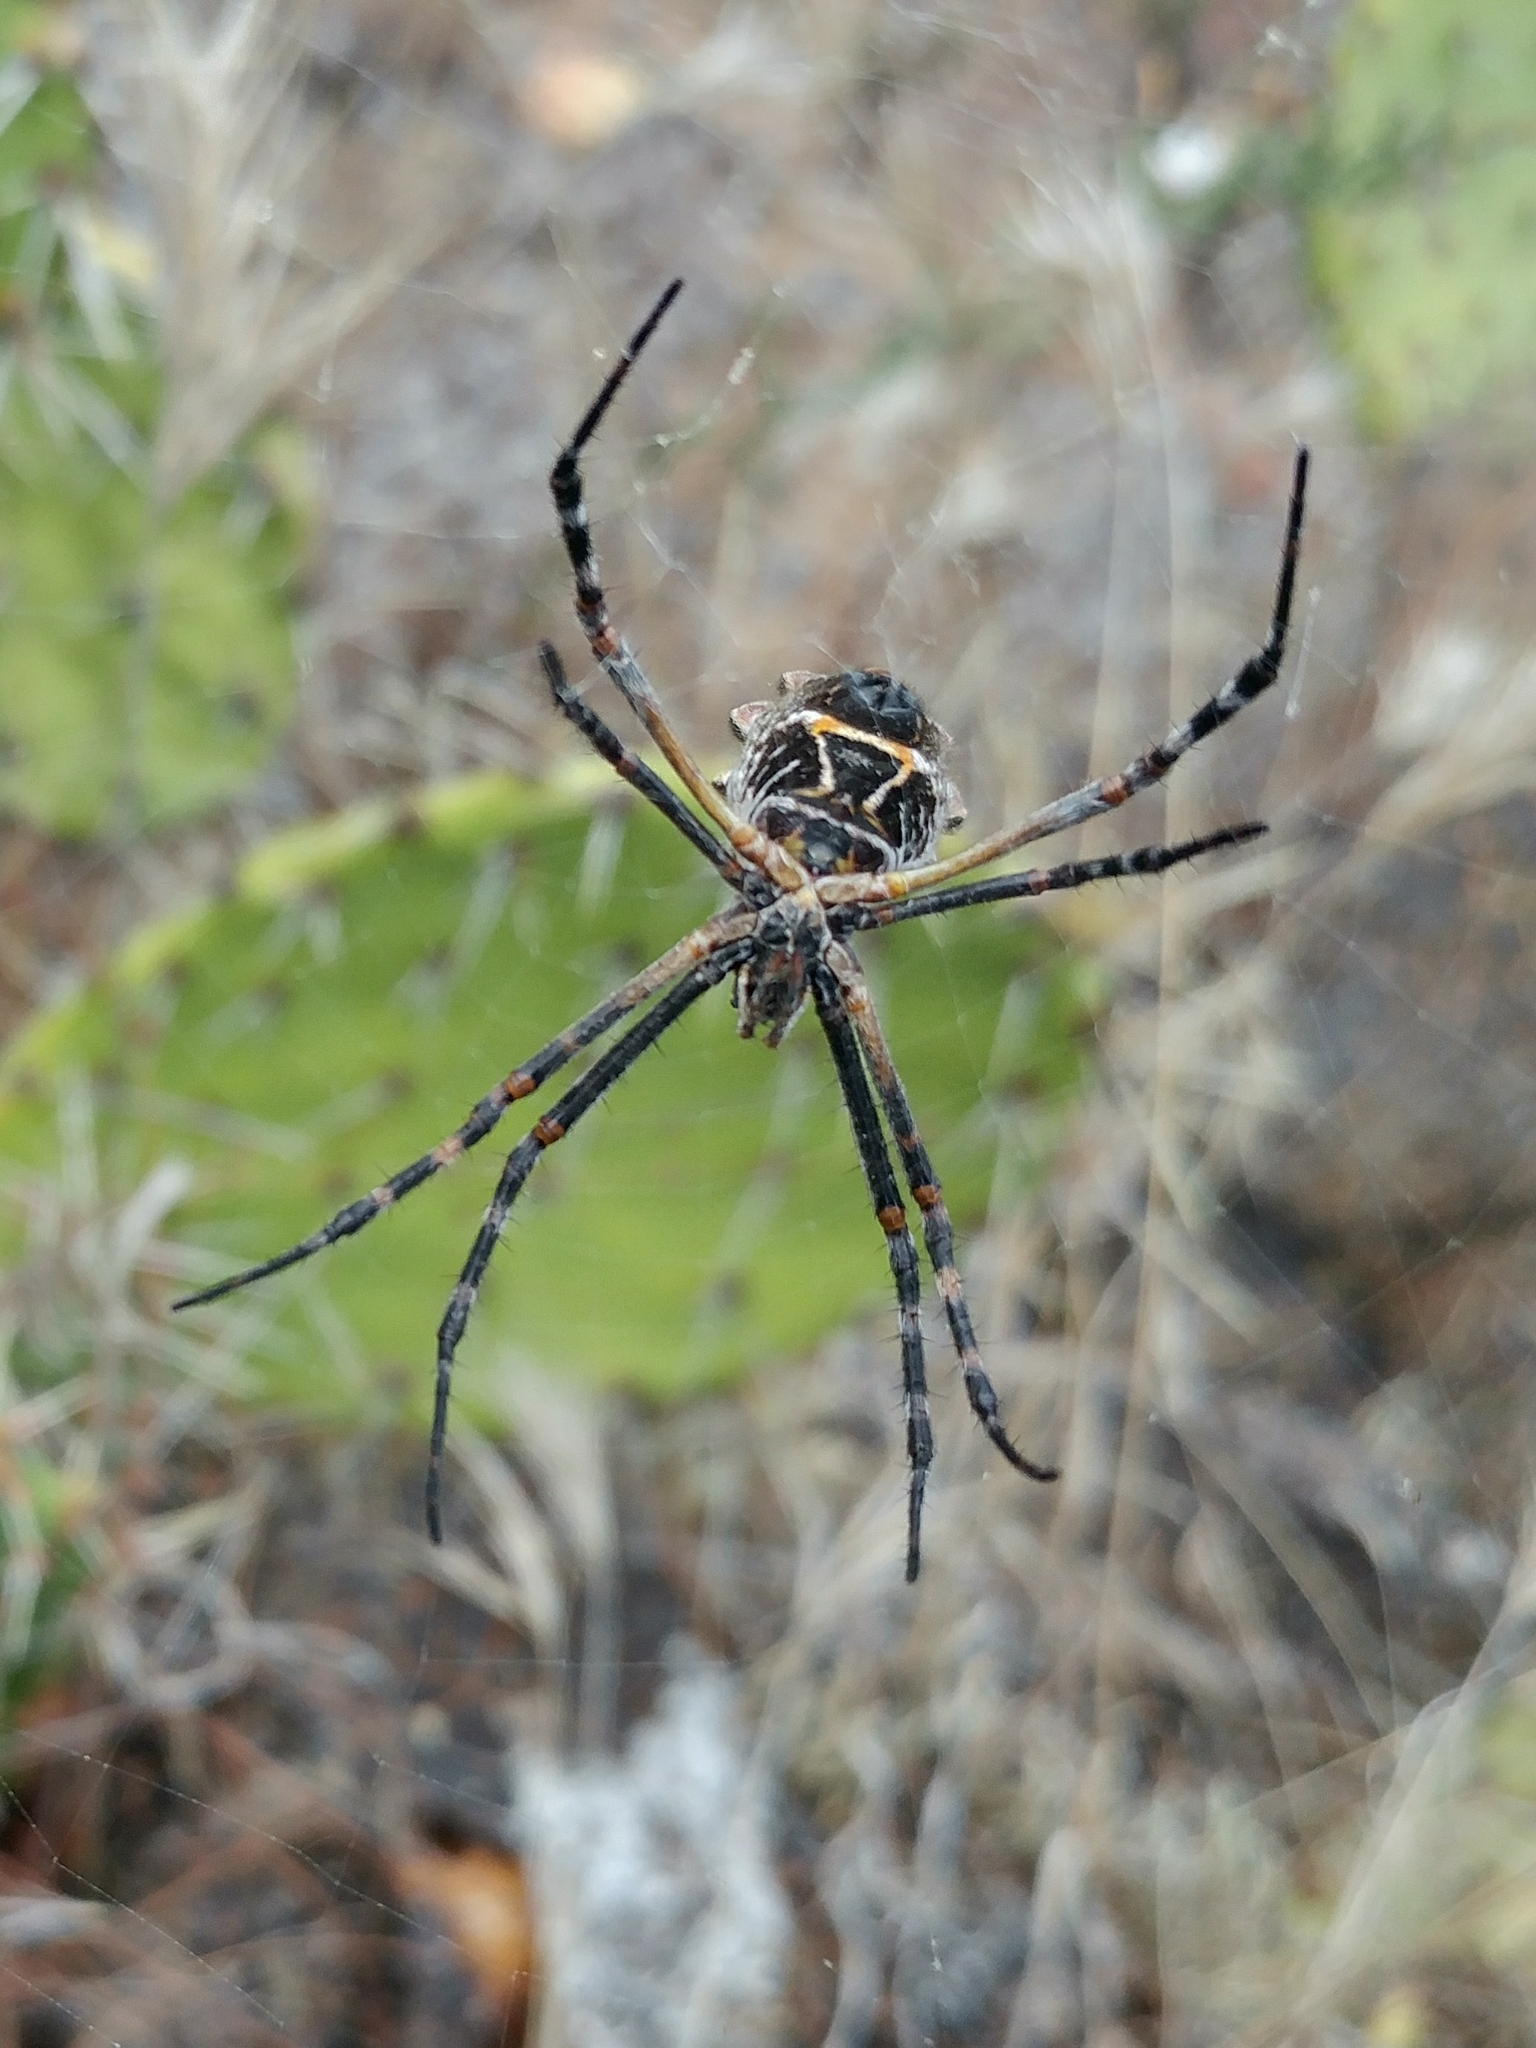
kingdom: Animalia
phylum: Arthropoda
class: Arachnida
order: Araneae
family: Araneidae
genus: Argiope
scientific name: Argiope argentata
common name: Orb weavers
